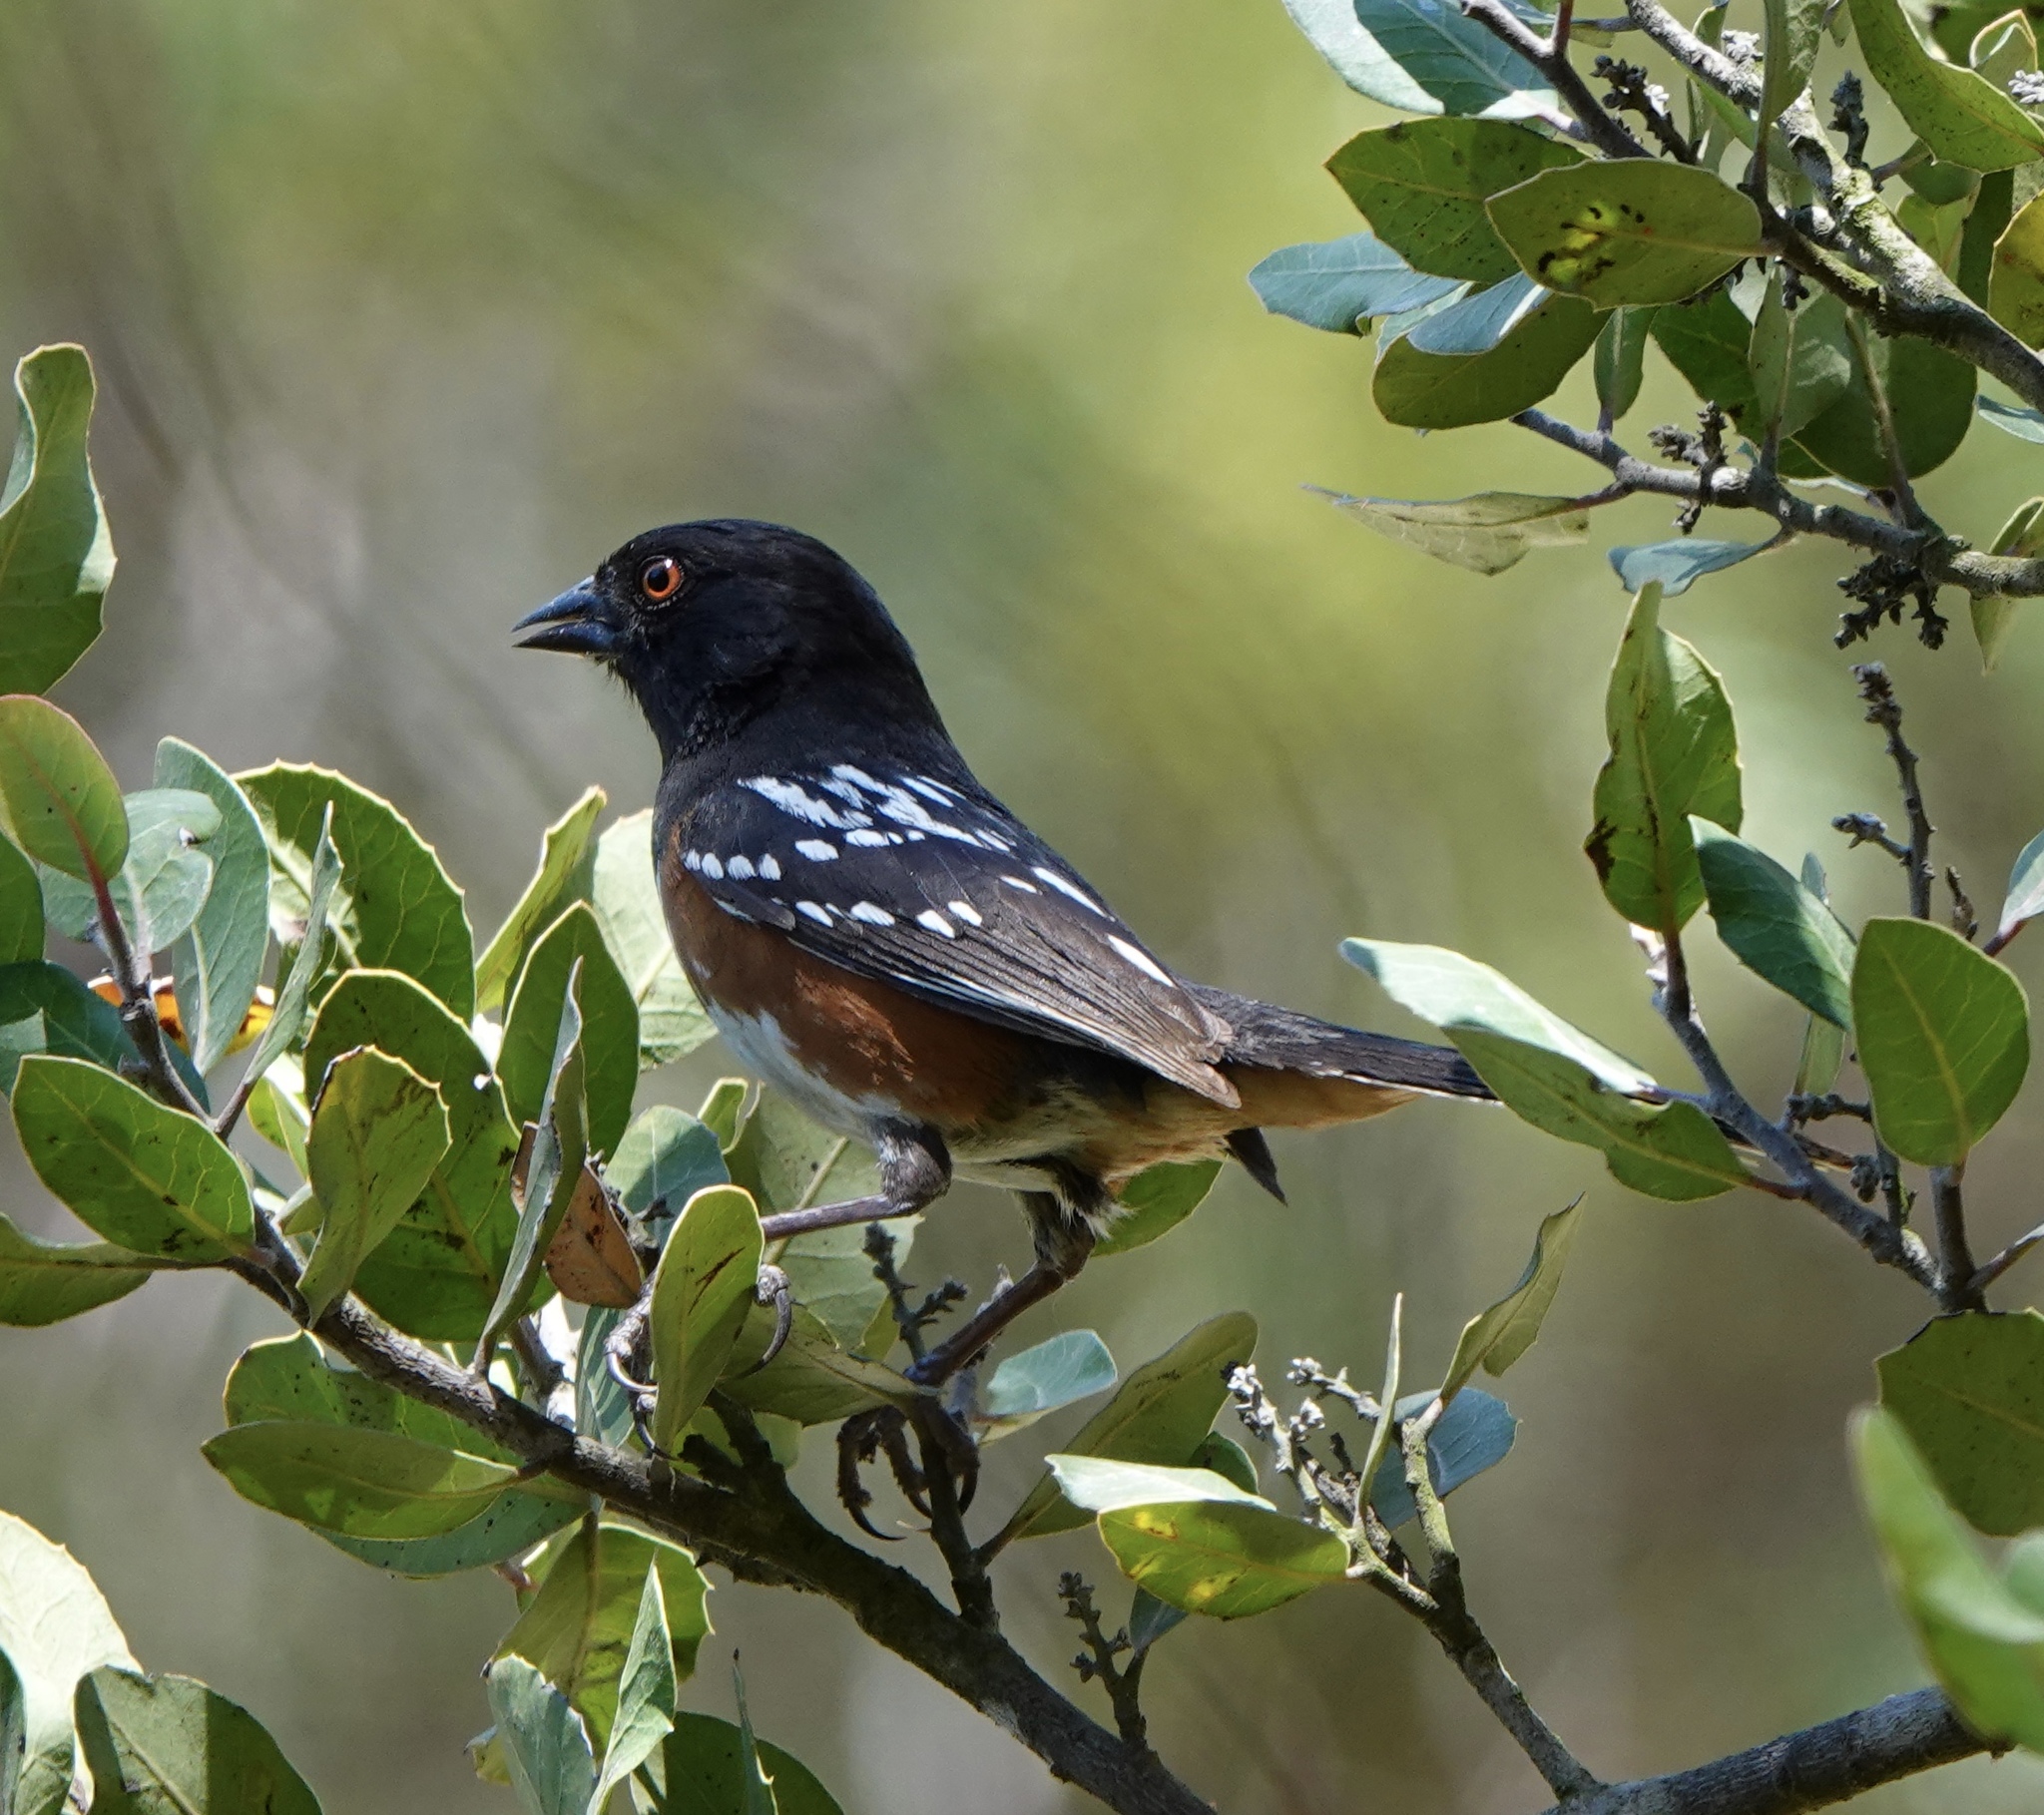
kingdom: Animalia
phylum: Chordata
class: Aves
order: Passeriformes
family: Passerellidae
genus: Pipilo
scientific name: Pipilo maculatus
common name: Spotted towhee
